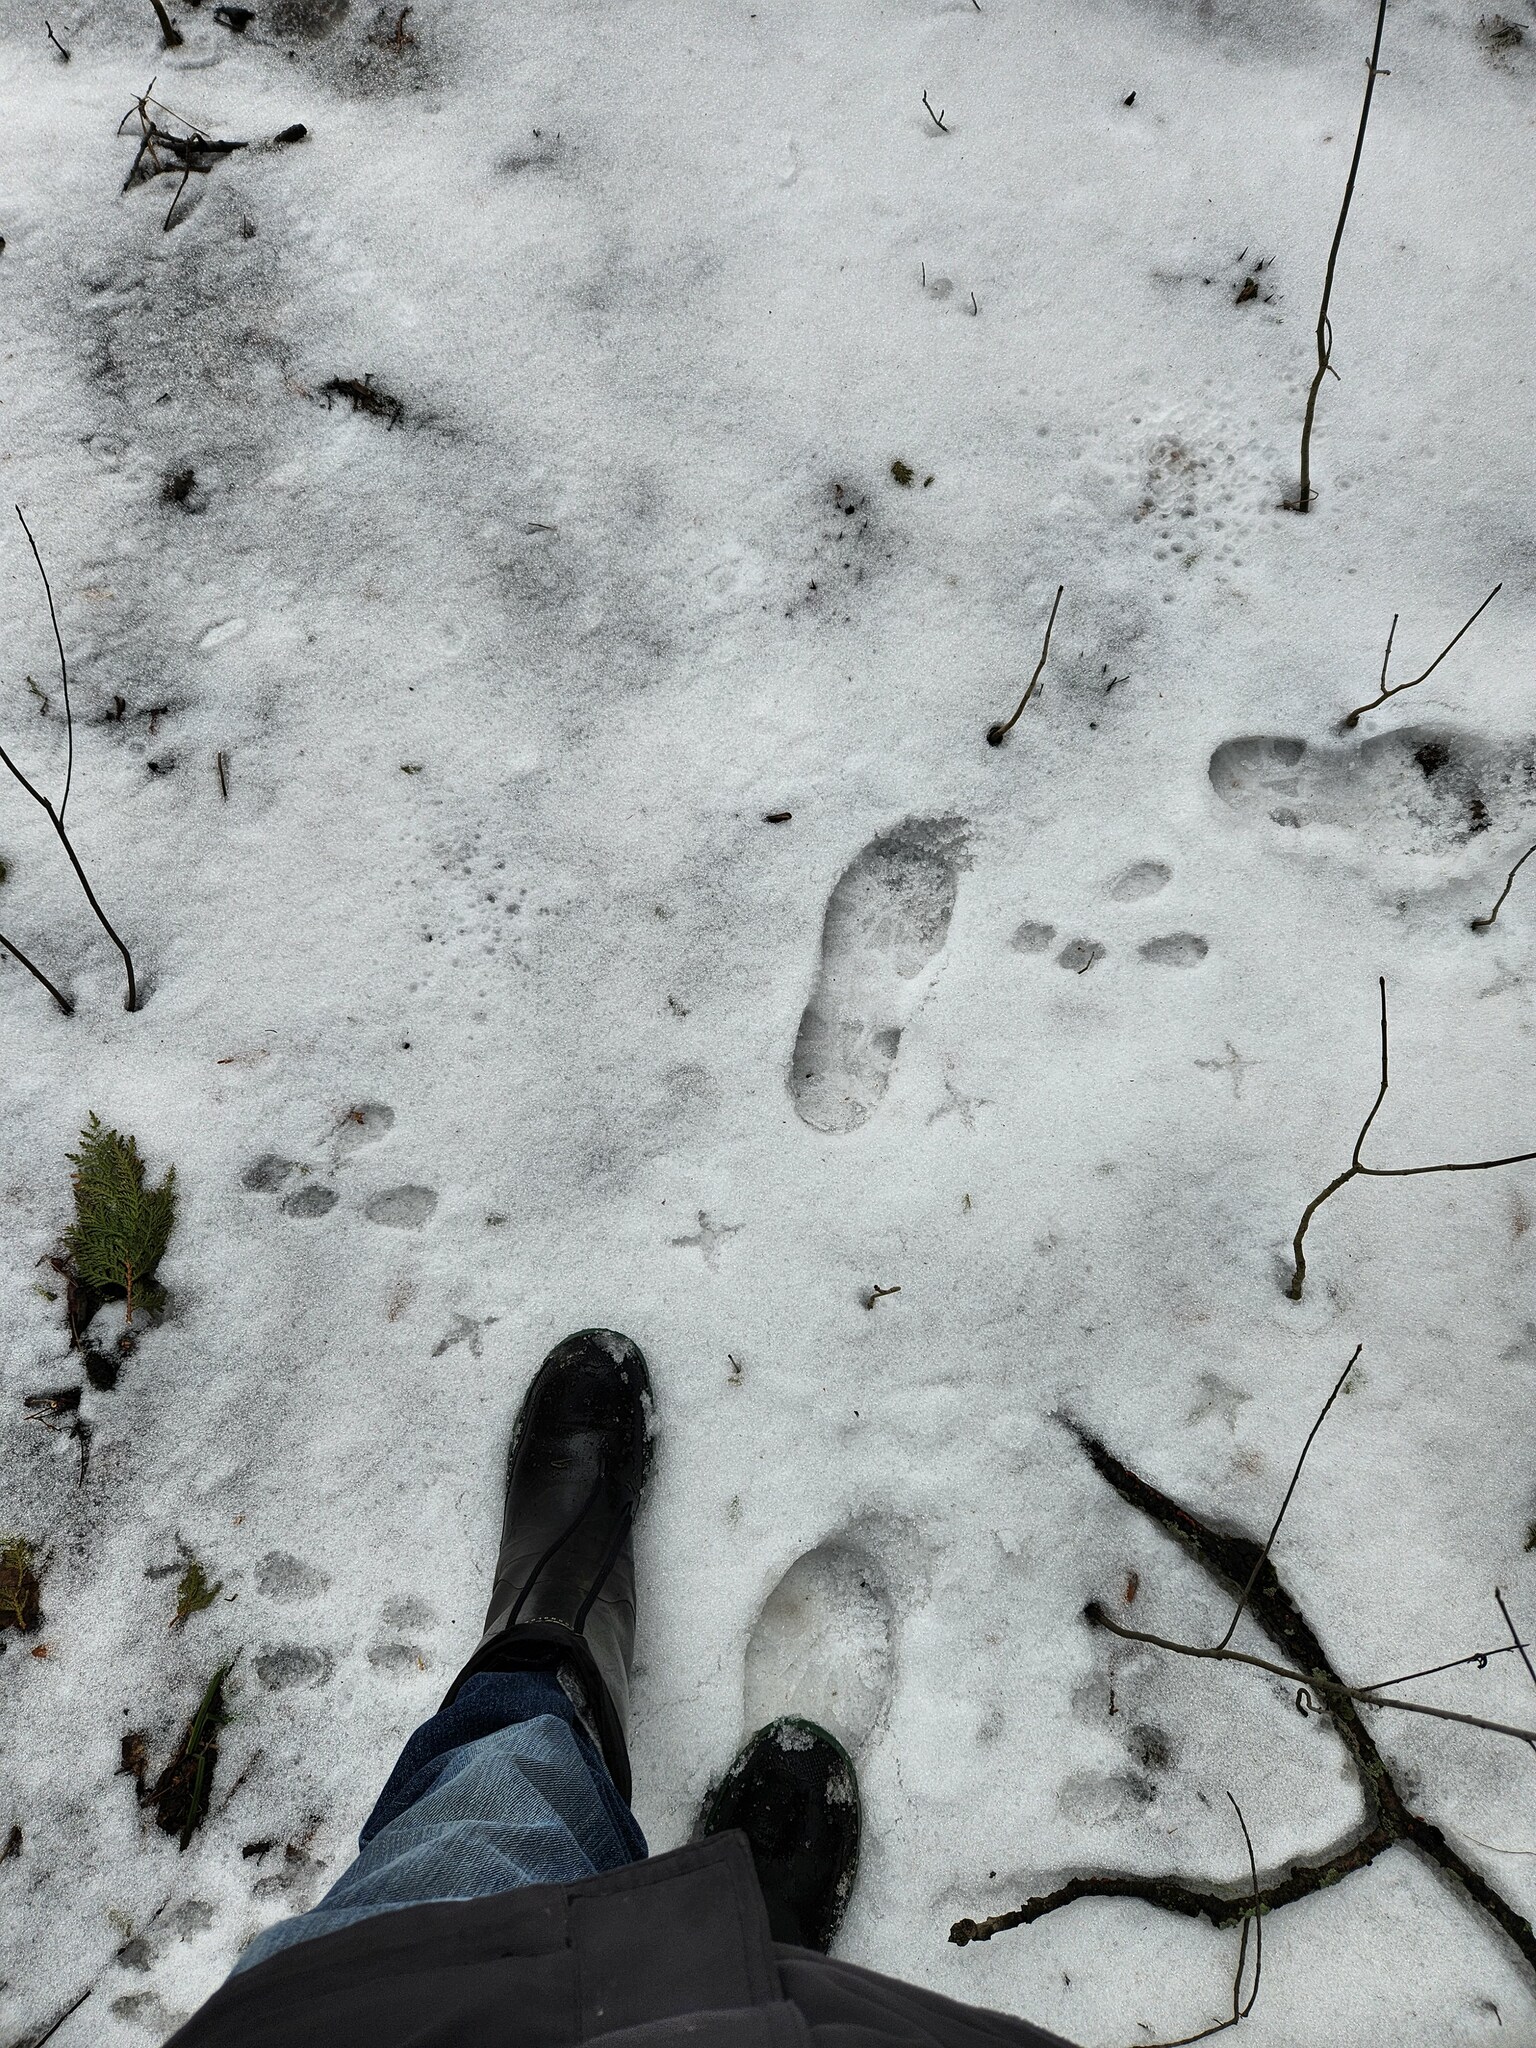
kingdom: Animalia
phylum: Chordata
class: Aves
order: Galliformes
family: Phasianidae
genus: Bonasa
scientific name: Bonasa umbellus
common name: Ruffed grouse
